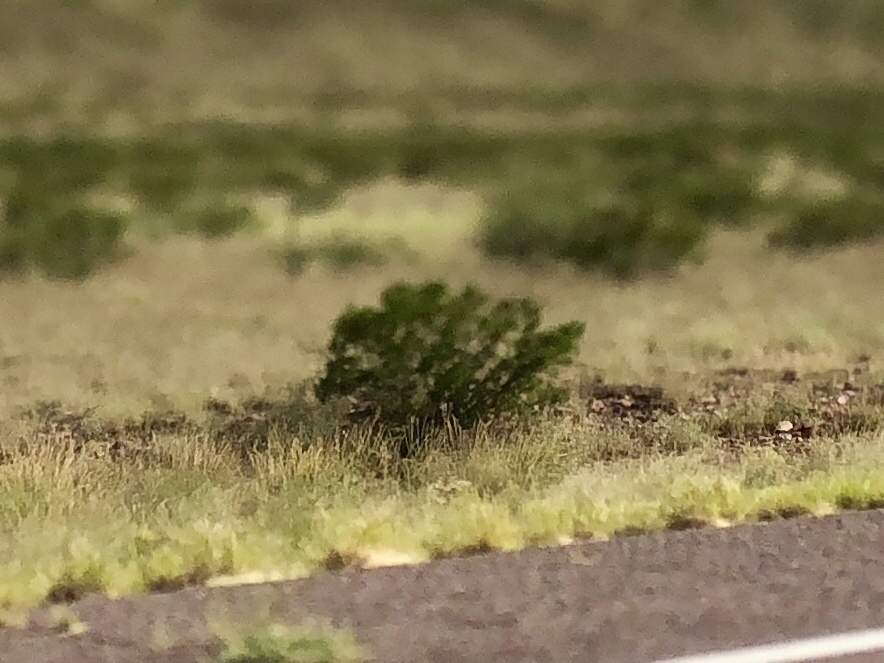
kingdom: Plantae
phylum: Tracheophyta
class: Magnoliopsida
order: Zygophyllales
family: Zygophyllaceae
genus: Larrea
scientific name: Larrea tridentata
